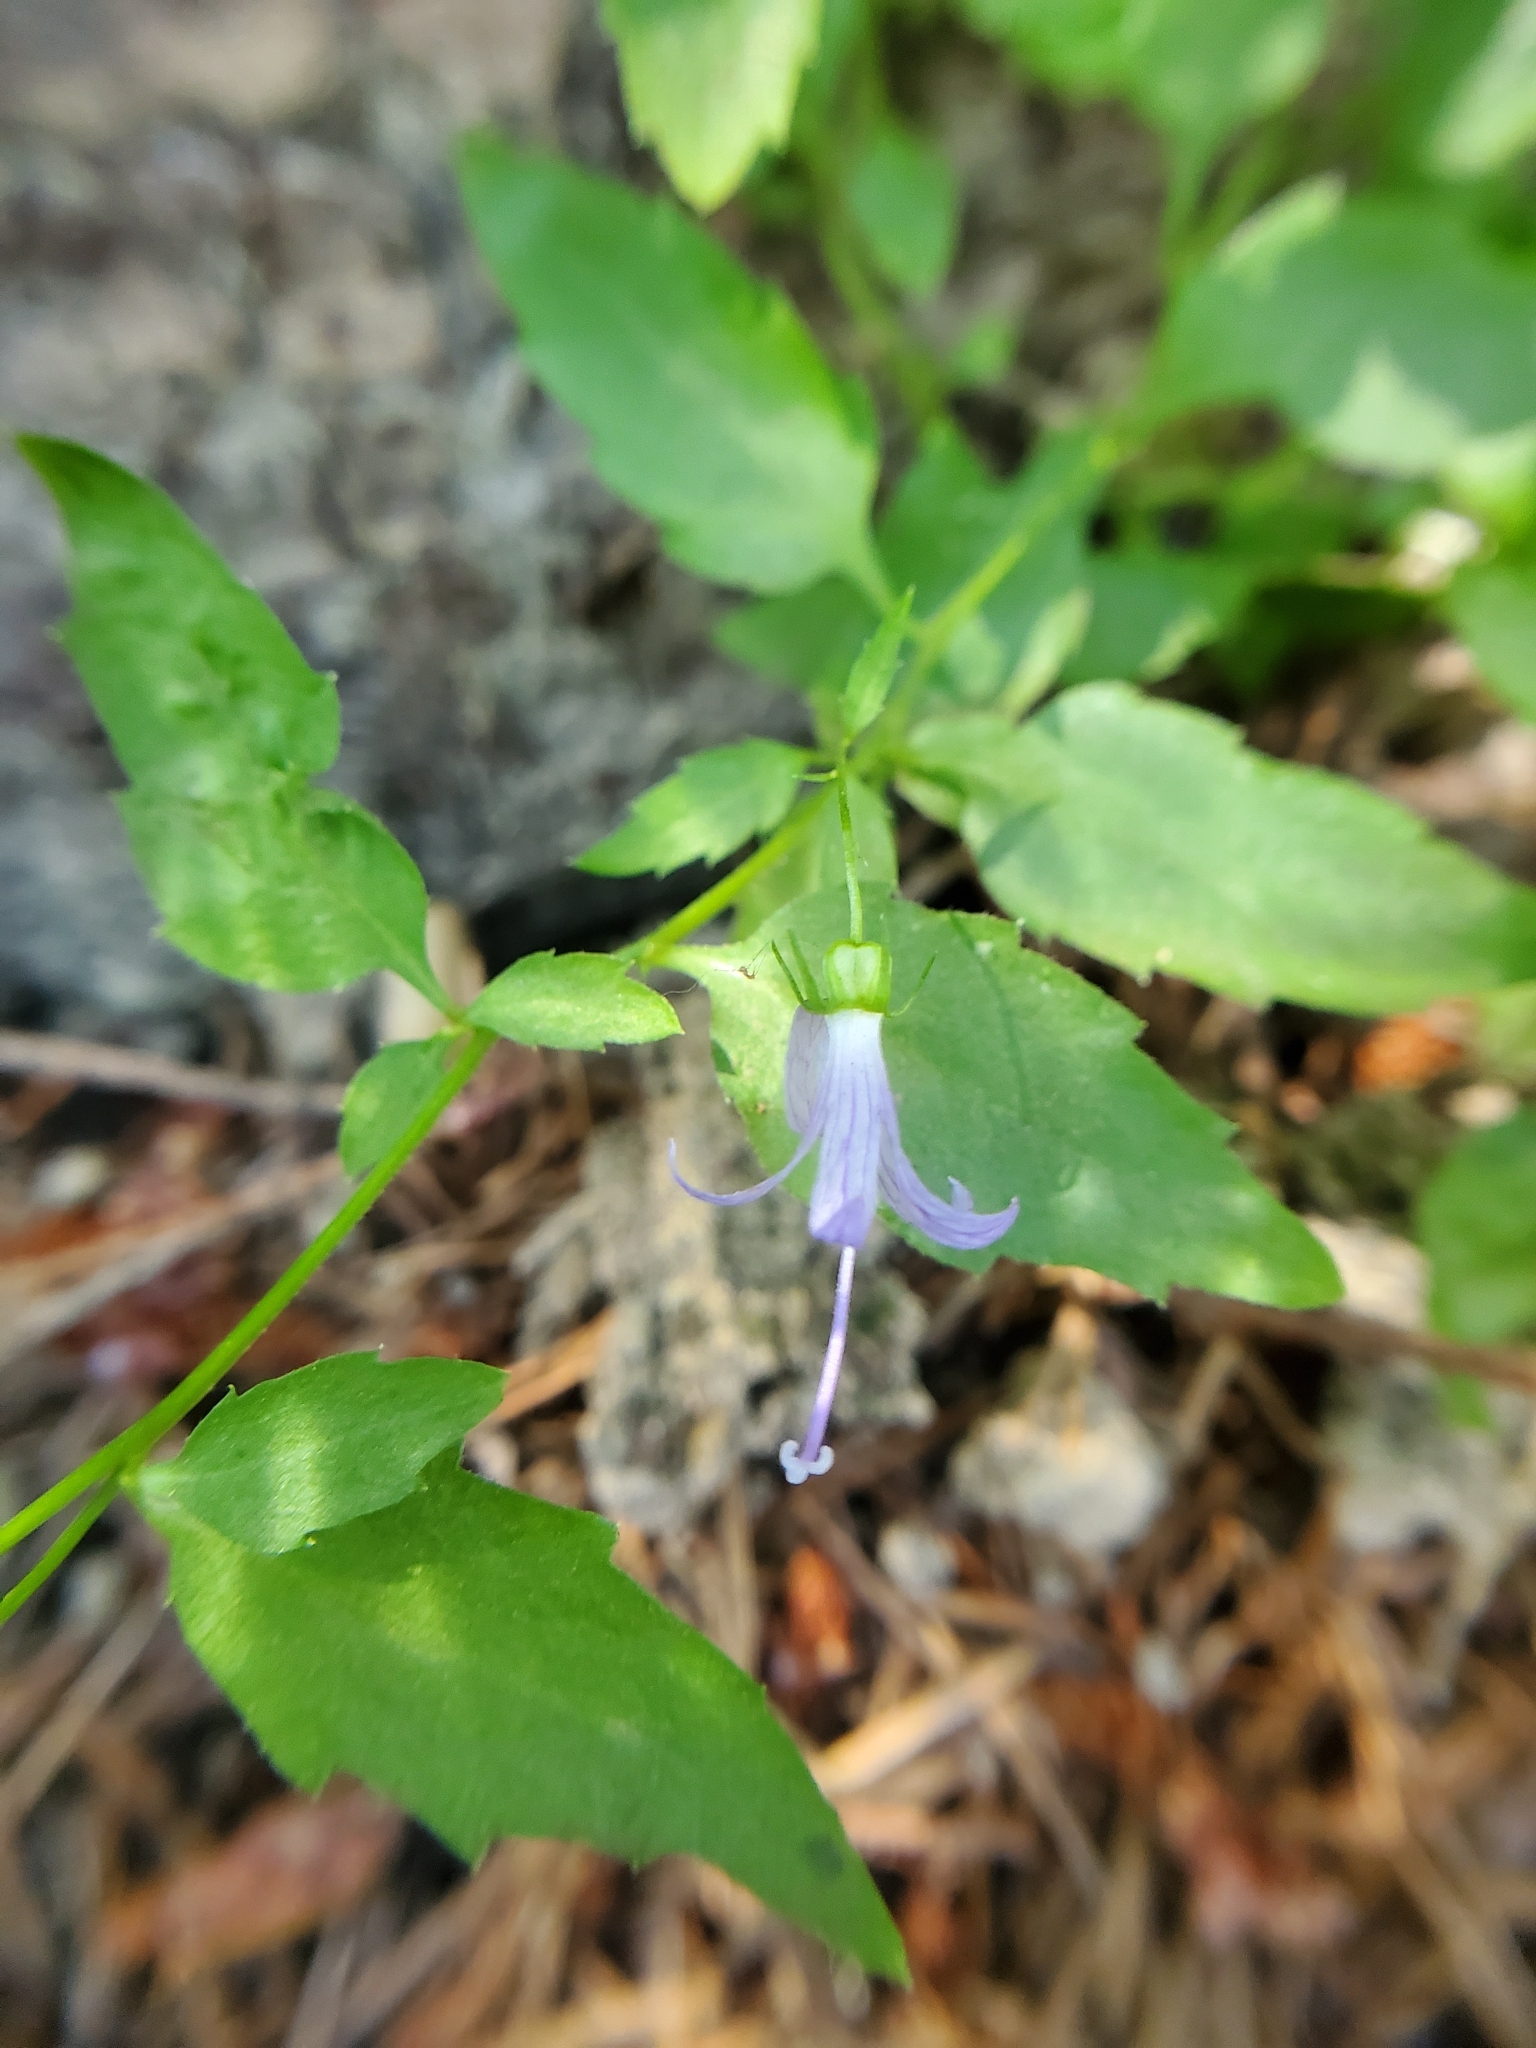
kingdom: Plantae
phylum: Tracheophyta
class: Magnoliopsida
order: Asterales
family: Campanulaceae
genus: Smithiastrum
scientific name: Smithiastrum prenanthoides
